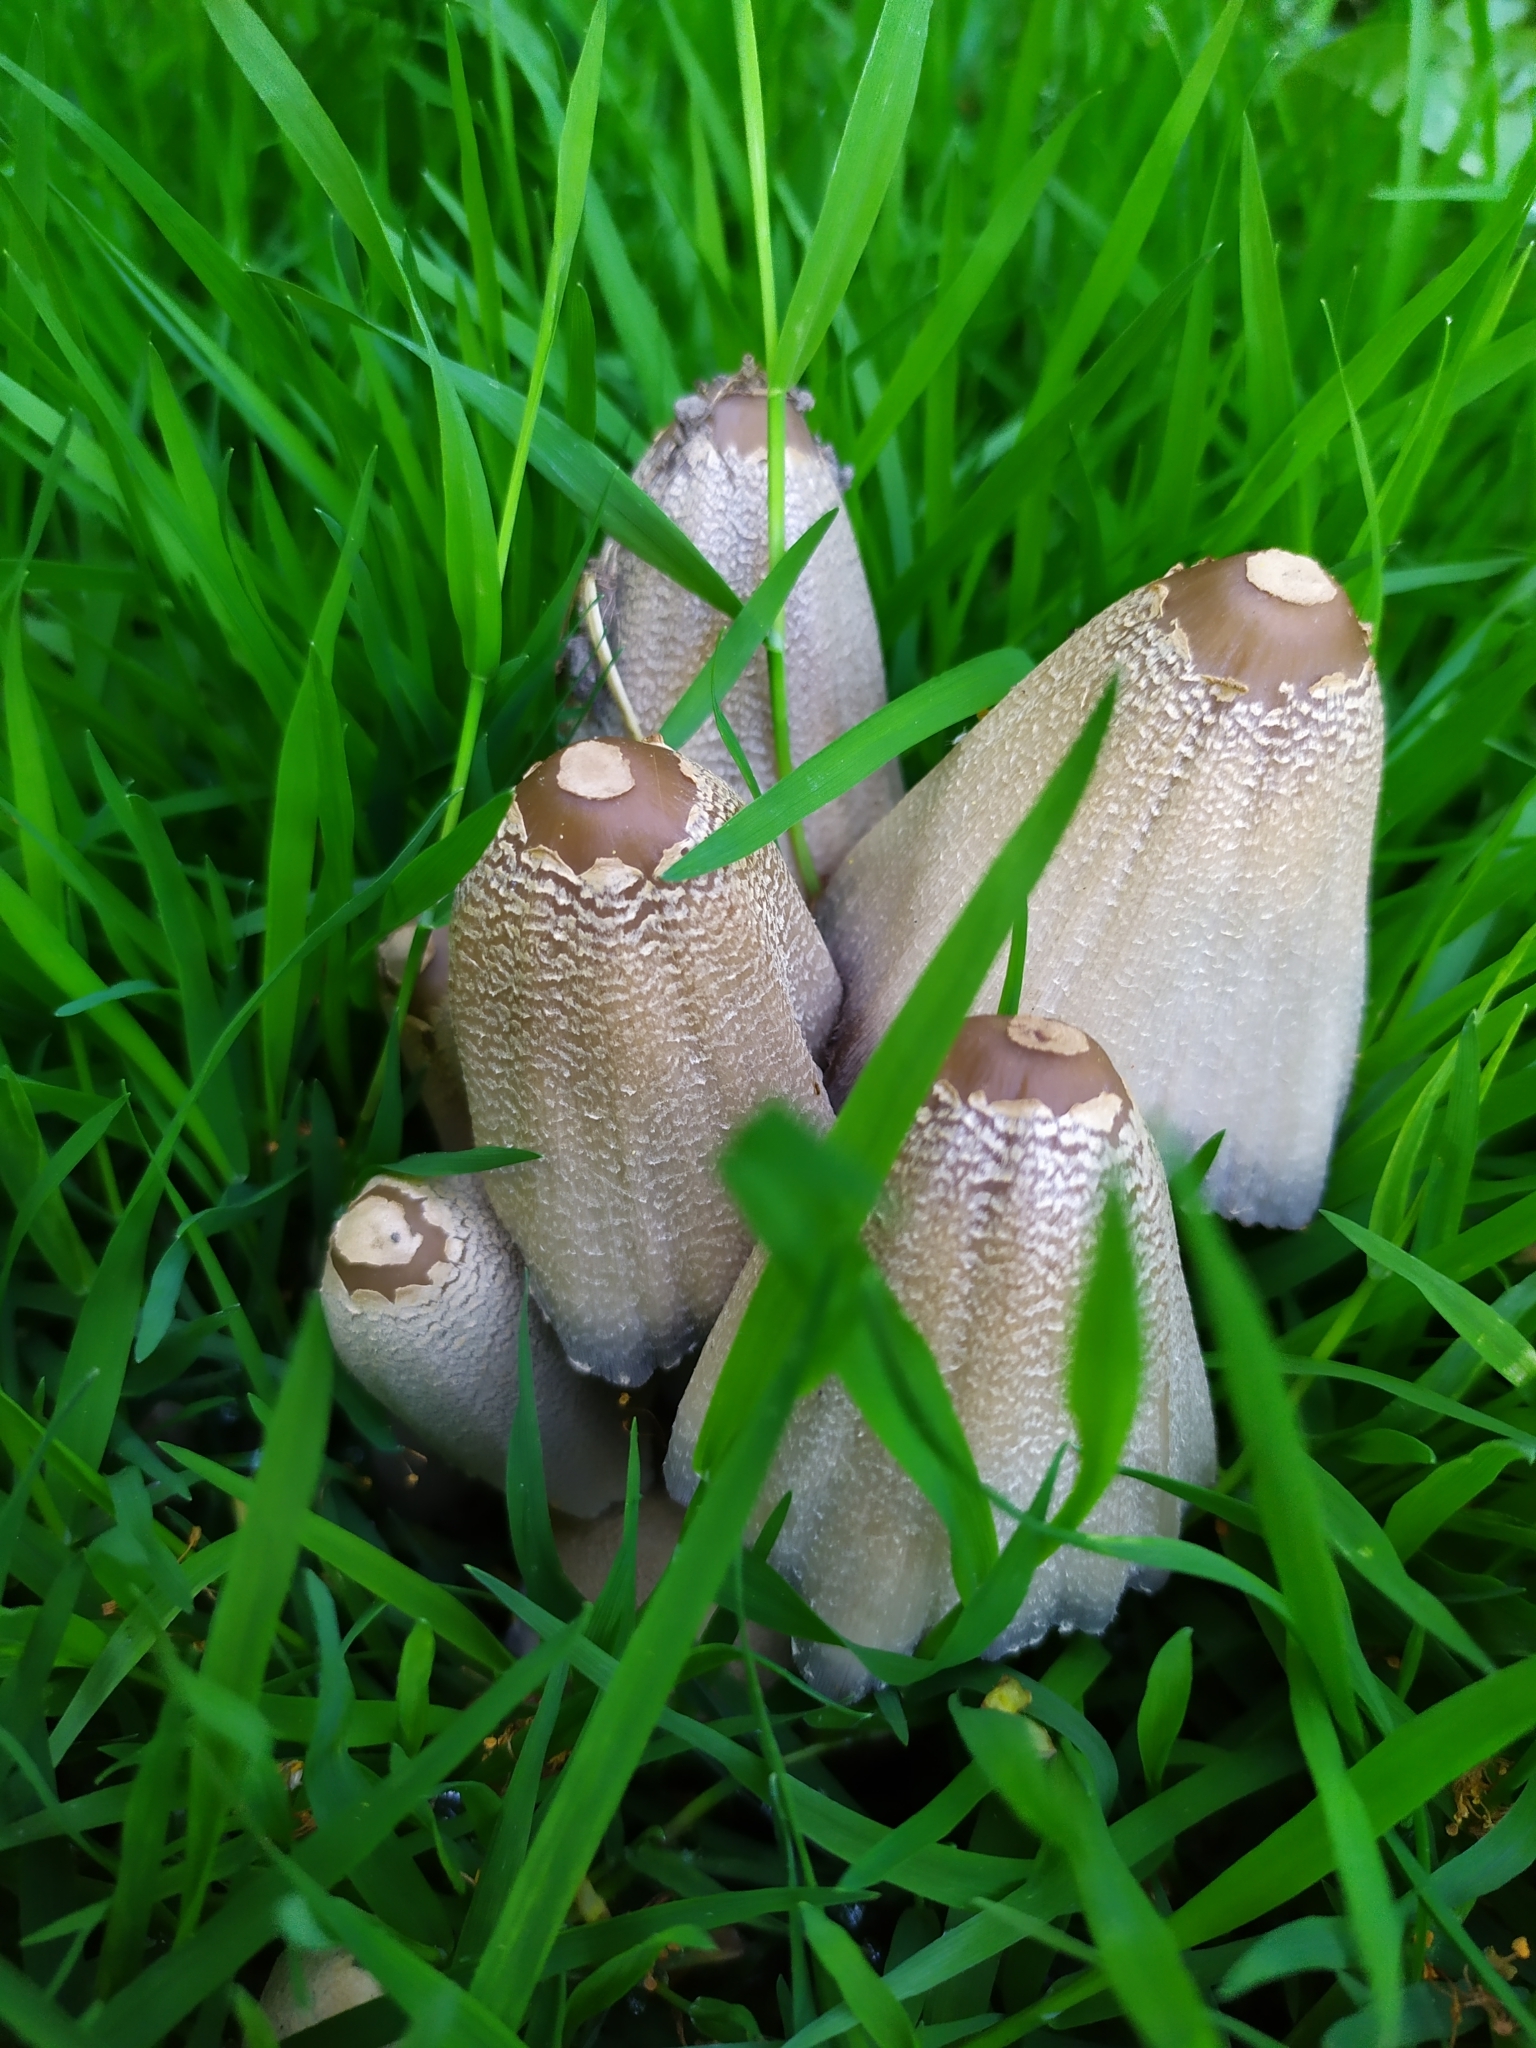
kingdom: Fungi
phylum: Basidiomycota
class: Agaricomycetes
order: Agaricales
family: Psathyrellaceae
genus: Coprinopsis
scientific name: Coprinopsis strossmayeri
